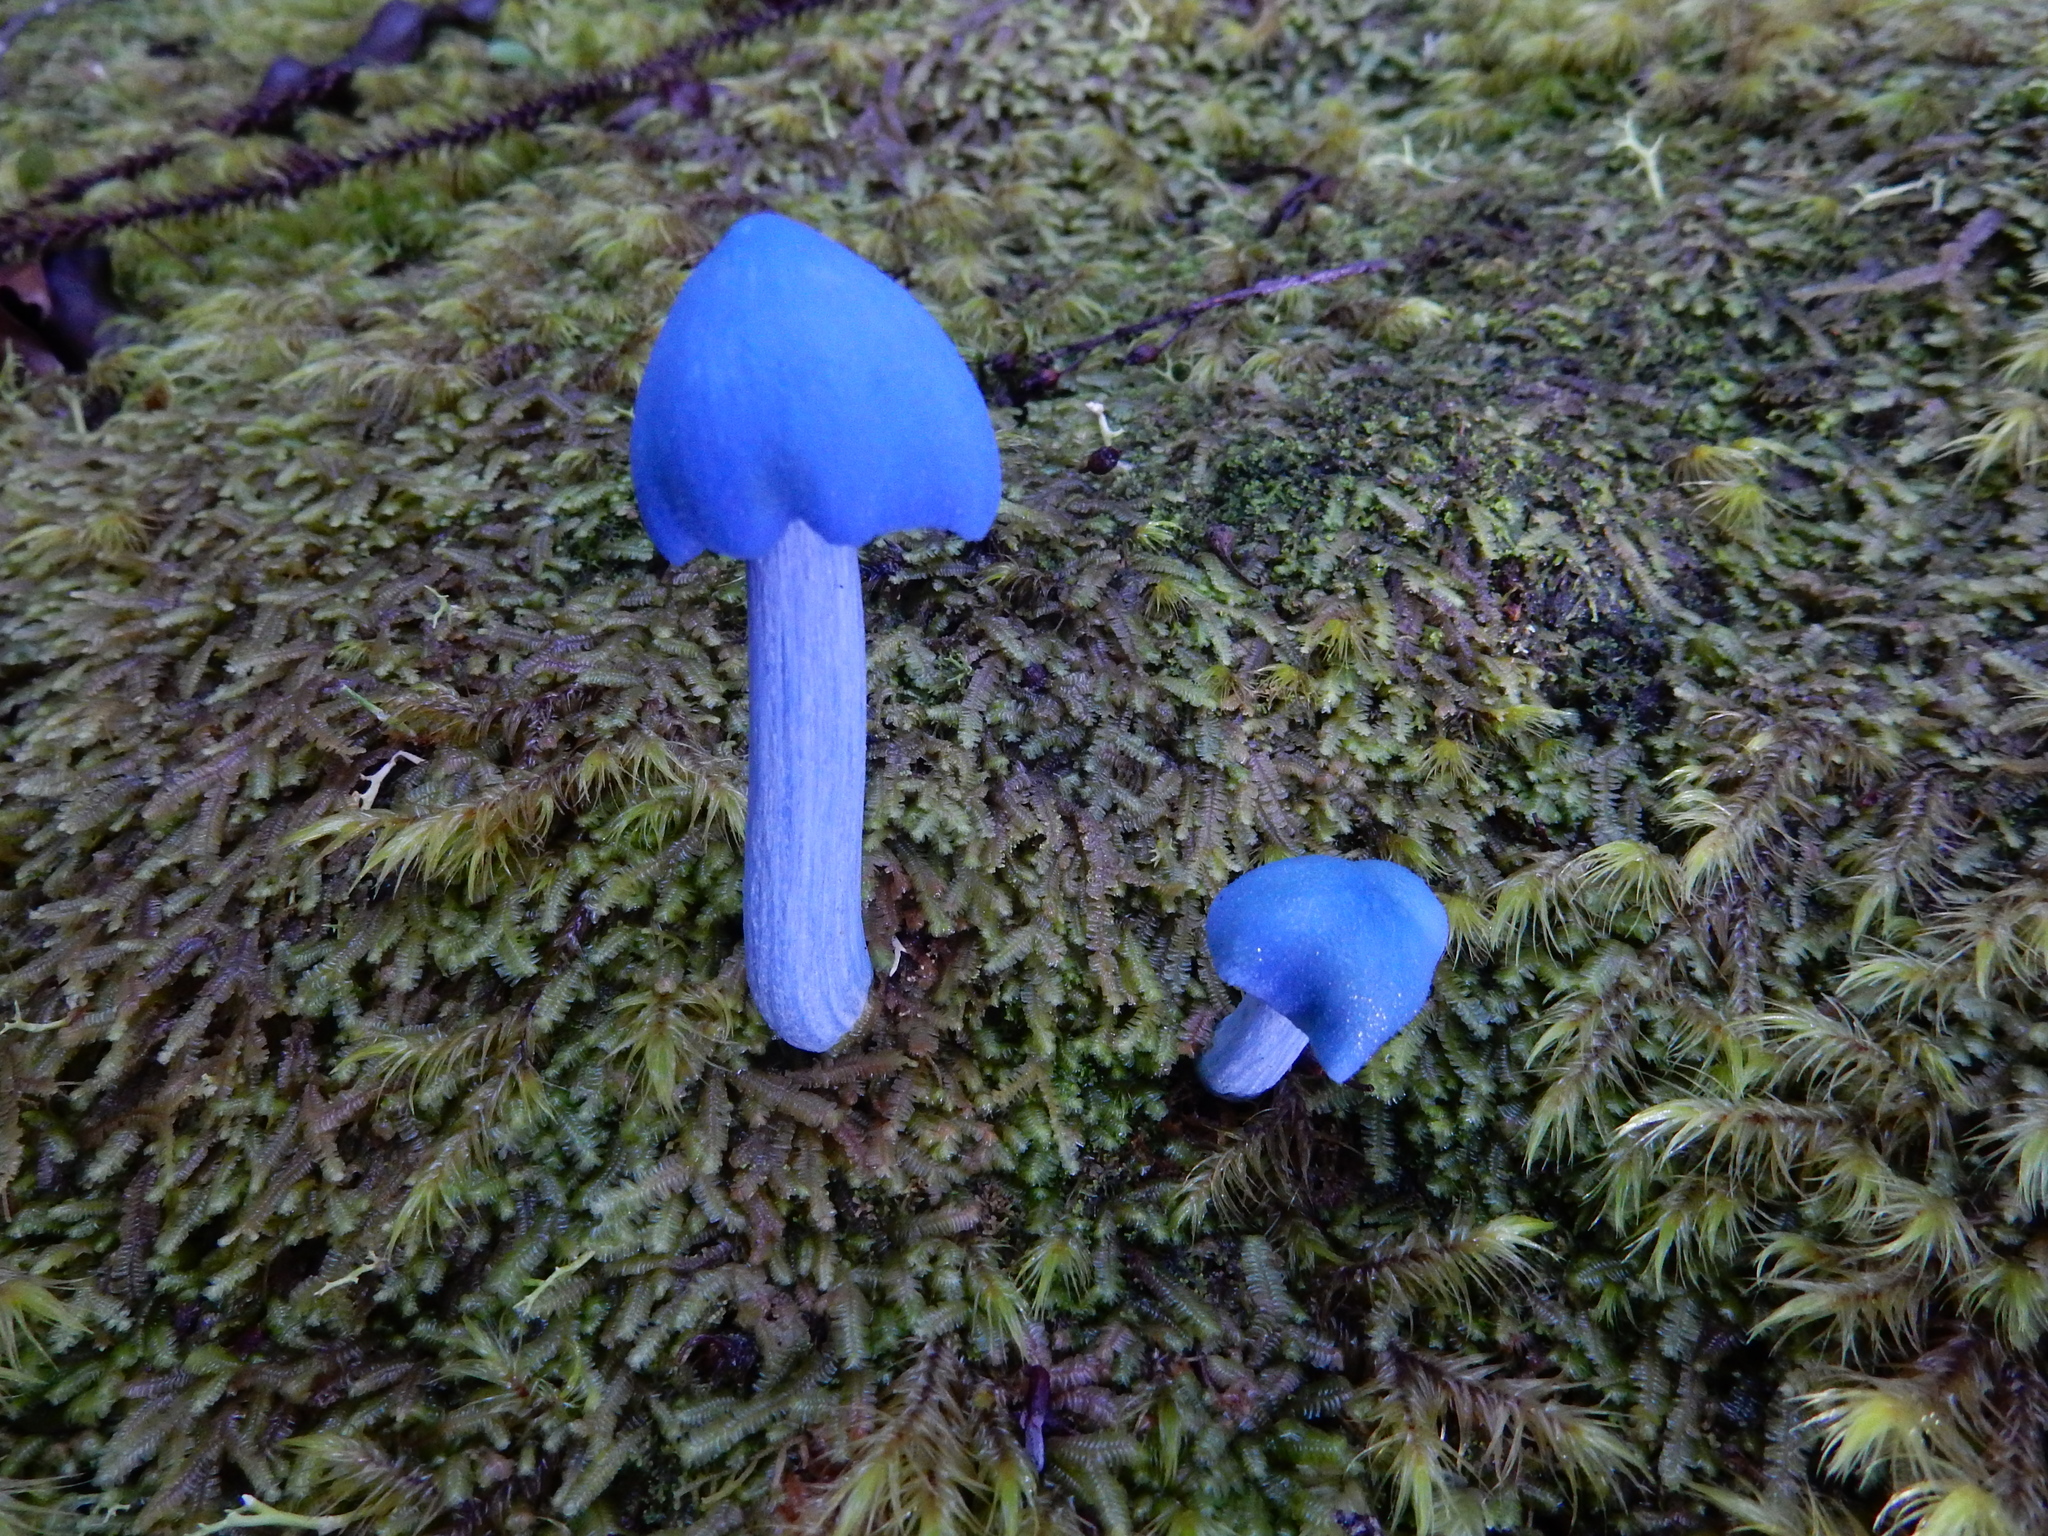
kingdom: Fungi
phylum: Basidiomycota
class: Agaricomycetes
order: Agaricales
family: Entolomataceae
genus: Entoloma
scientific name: Entoloma hochstetteri
